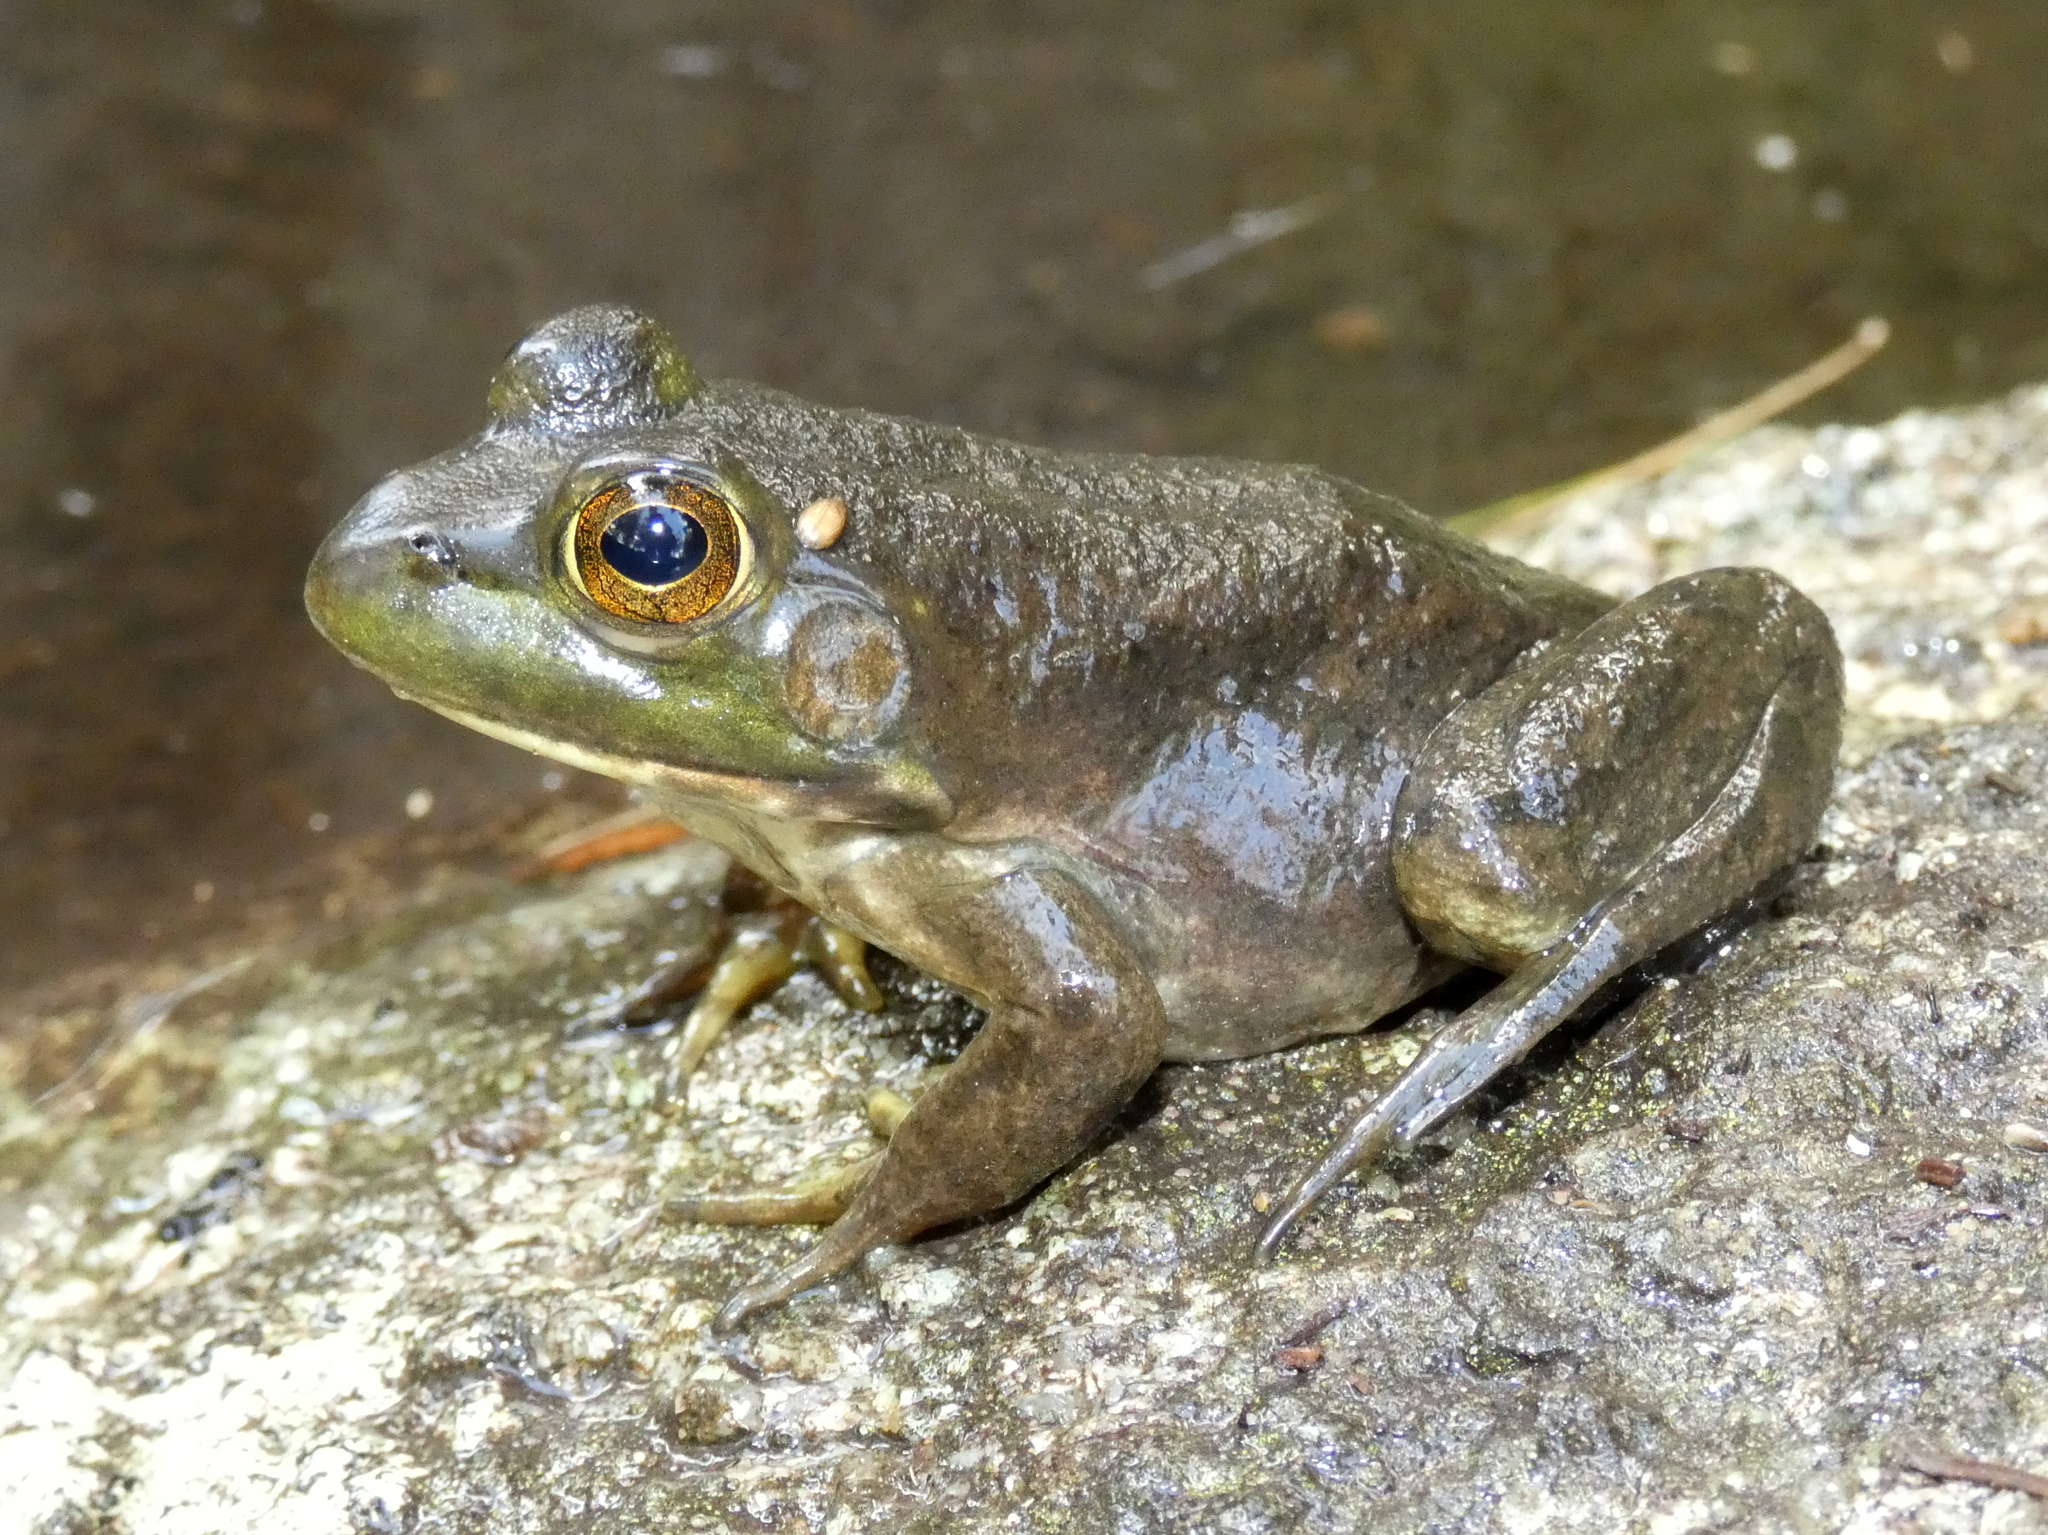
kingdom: Animalia
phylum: Chordata
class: Amphibia
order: Anura
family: Ranidae
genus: Lithobates
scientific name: Lithobates catesbeianus
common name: American bullfrog
